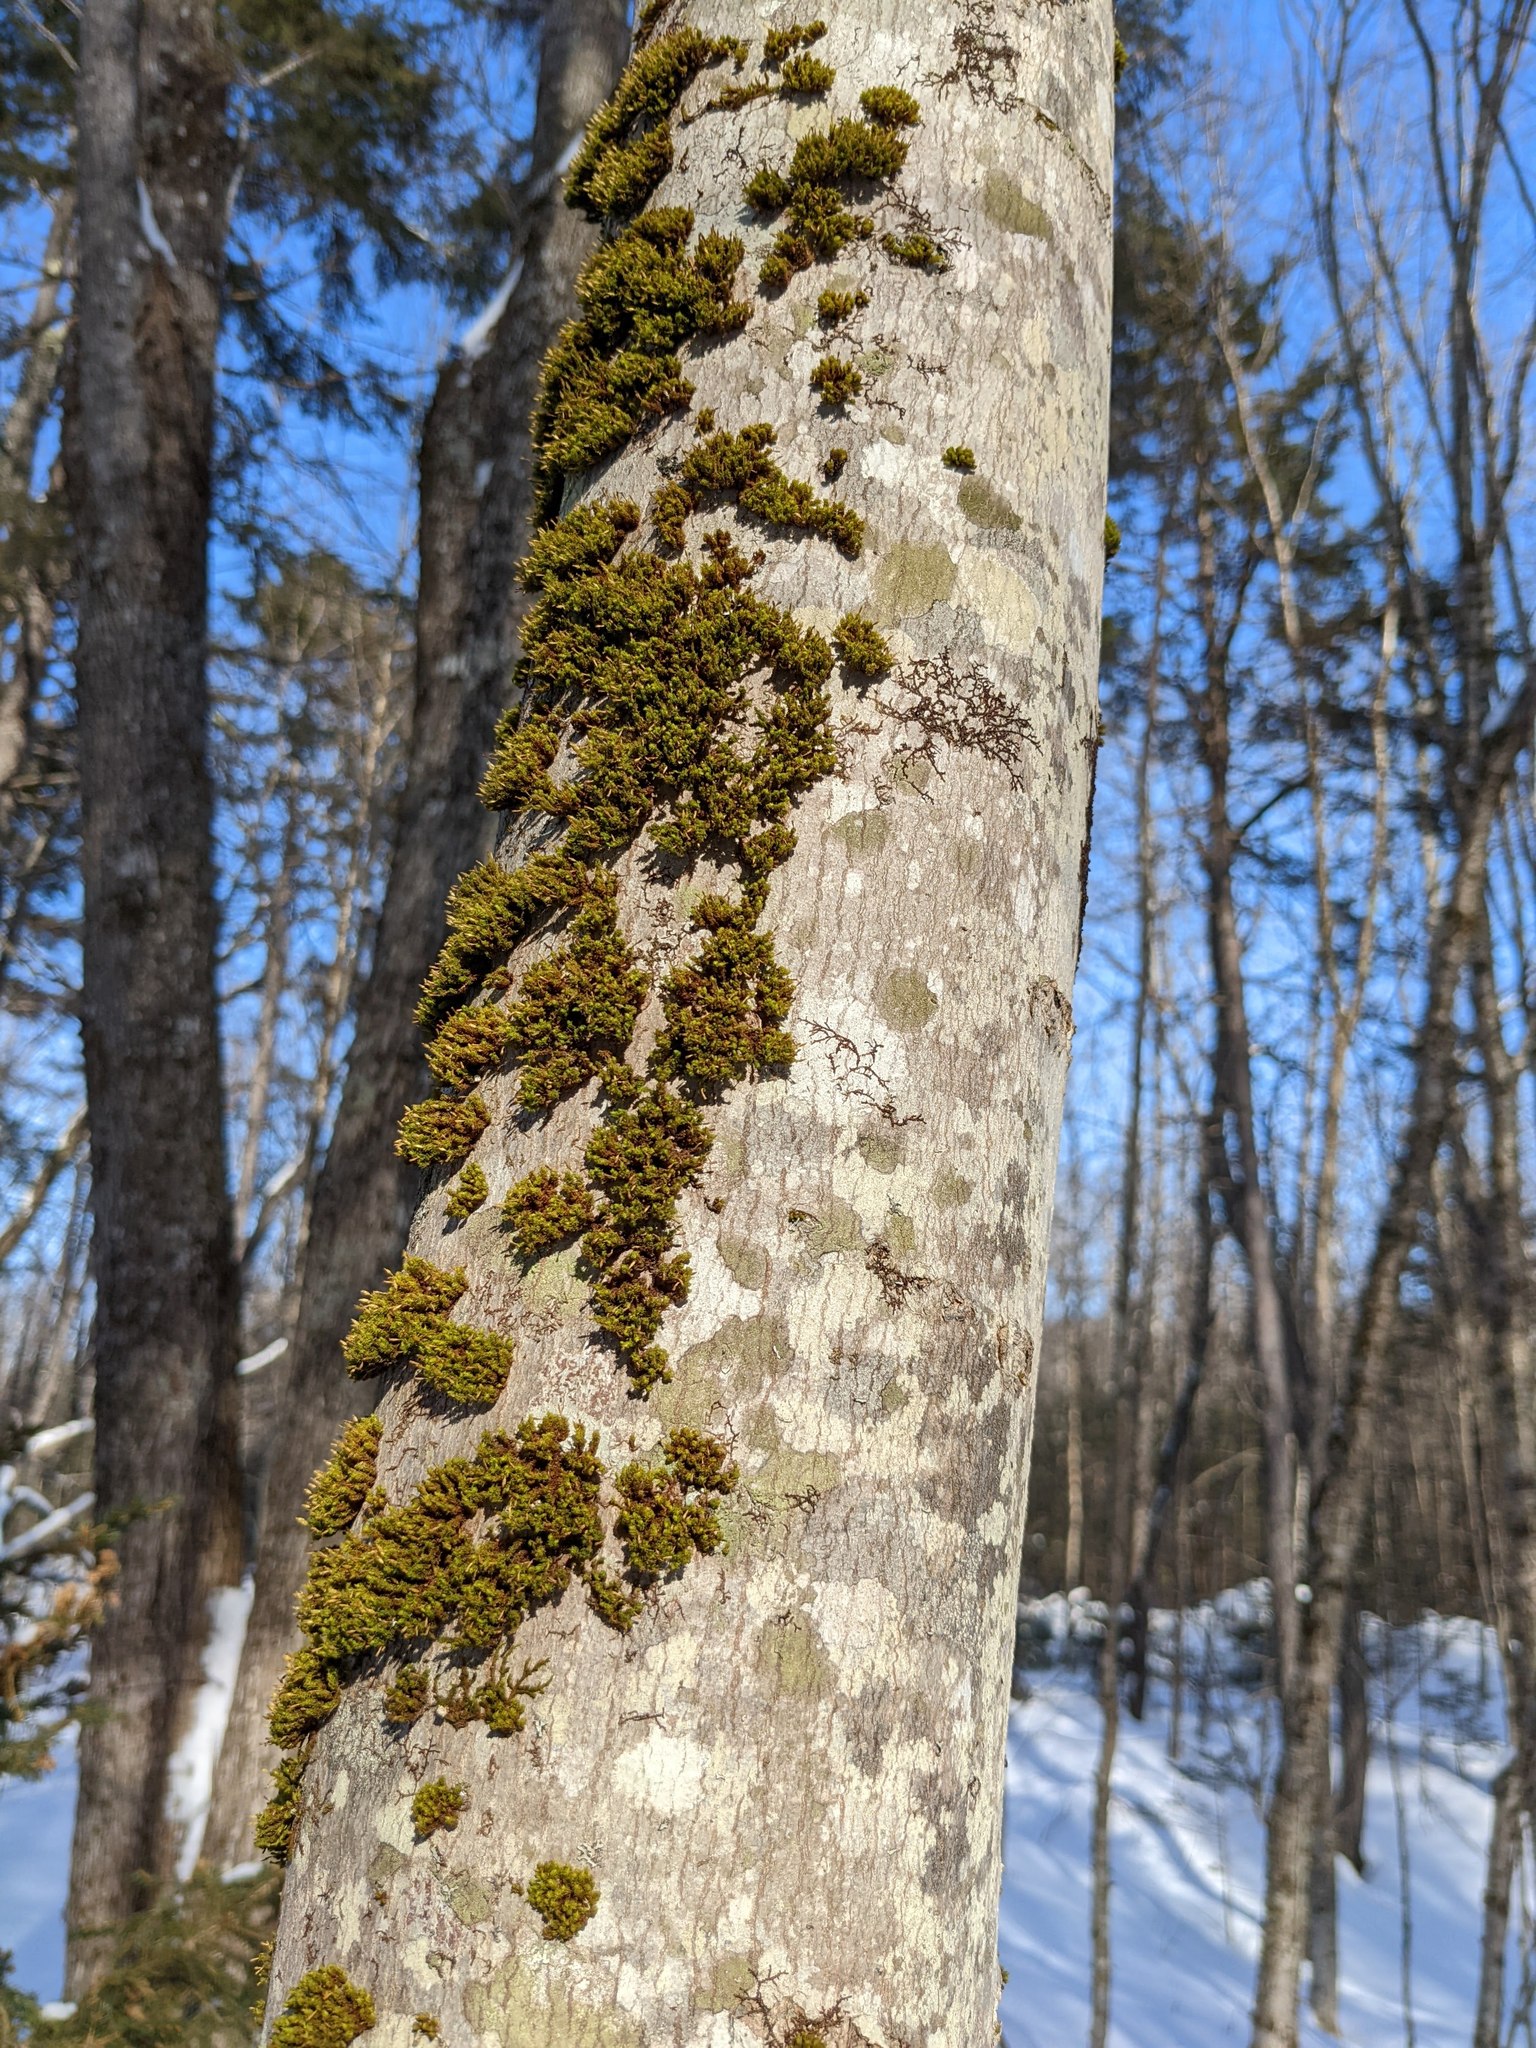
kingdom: Plantae
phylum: Bryophyta
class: Bryopsida
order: Orthotrichales
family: Orthotrichaceae
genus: Ulota
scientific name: Ulota crispa
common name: Crisped pincushion moss
